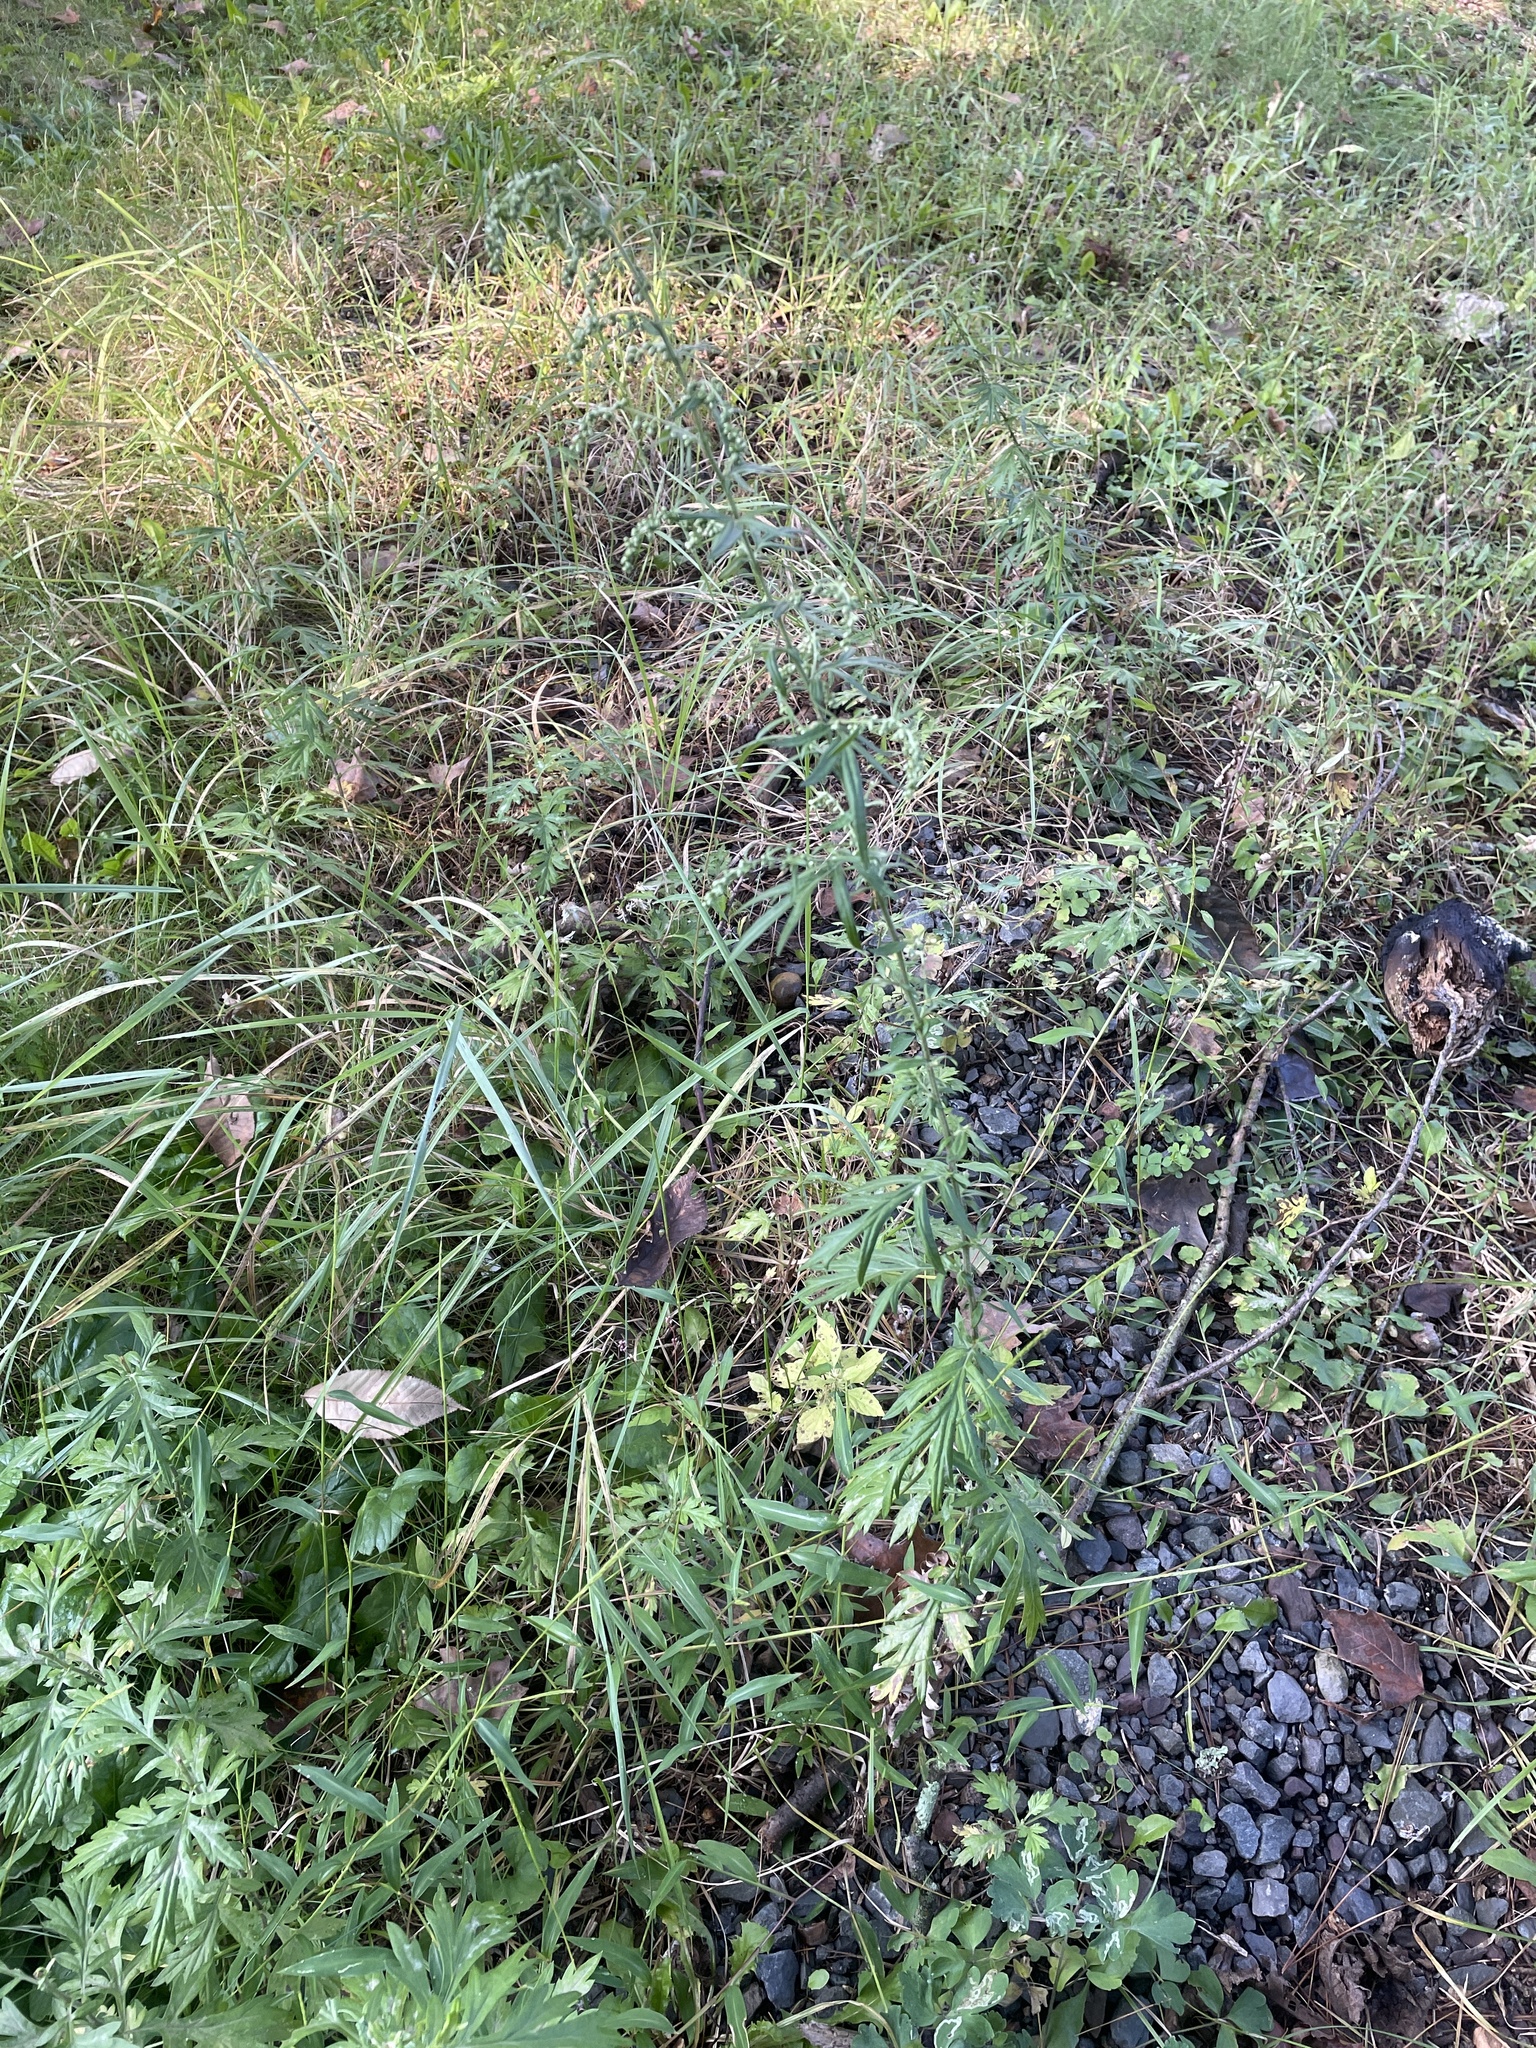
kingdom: Plantae
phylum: Tracheophyta
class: Magnoliopsida
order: Asterales
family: Asteraceae
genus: Artemisia
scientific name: Artemisia vulgaris
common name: Mugwort
